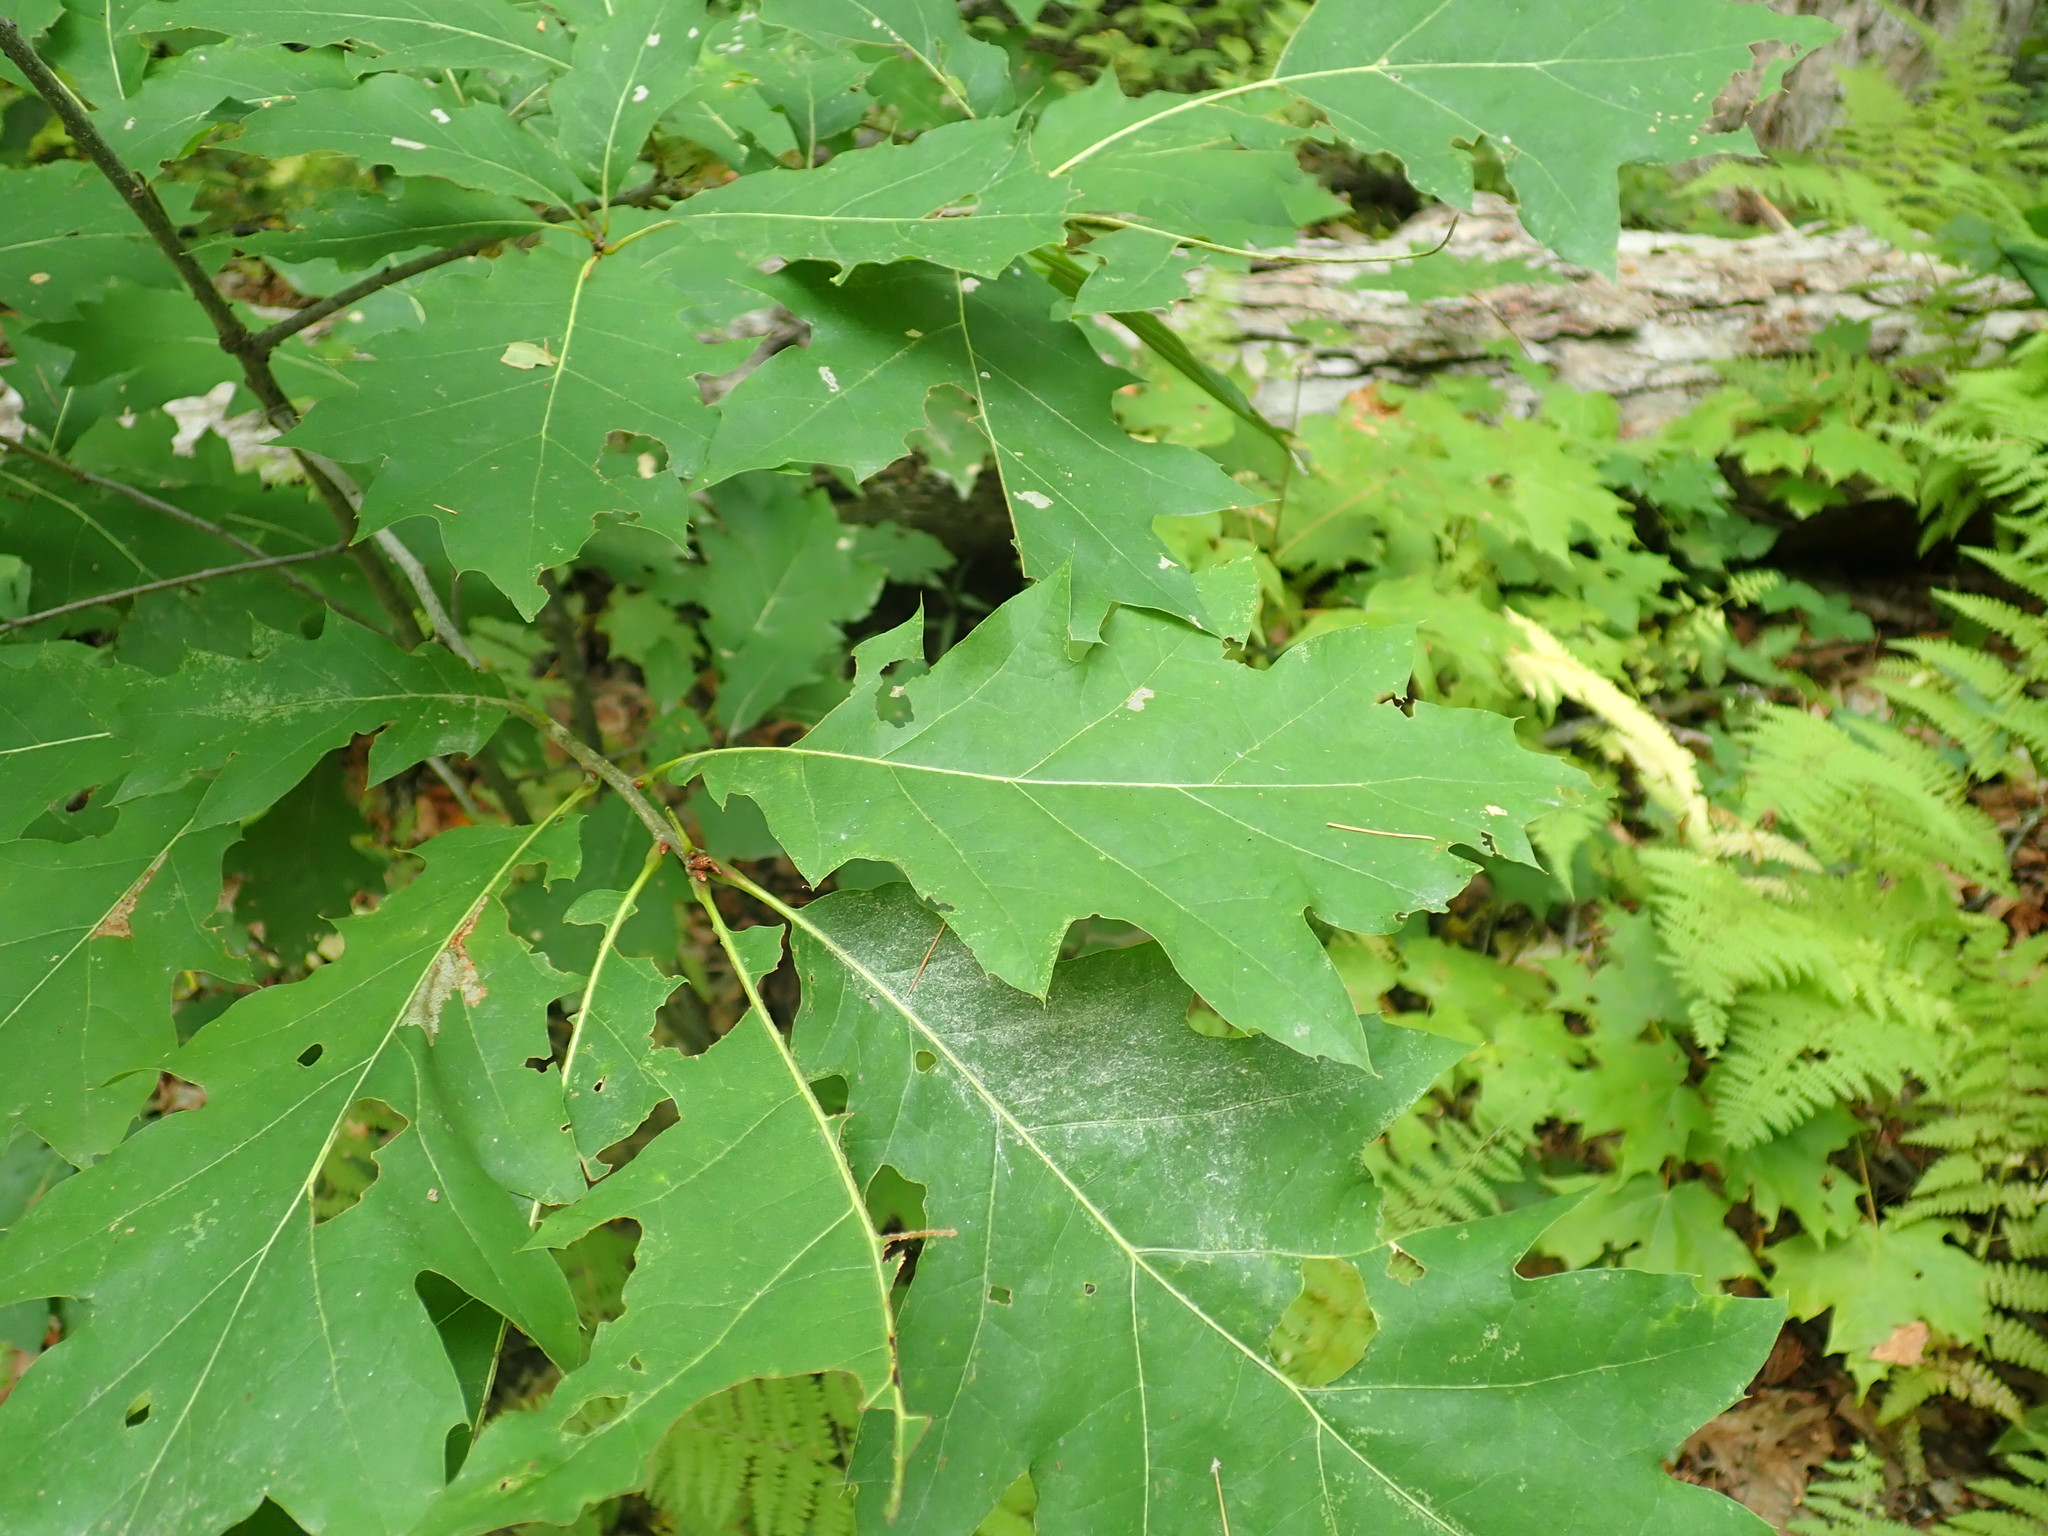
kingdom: Plantae
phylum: Tracheophyta
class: Magnoliopsida
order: Fagales
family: Fagaceae
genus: Quercus
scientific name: Quercus rubra
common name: Red oak
